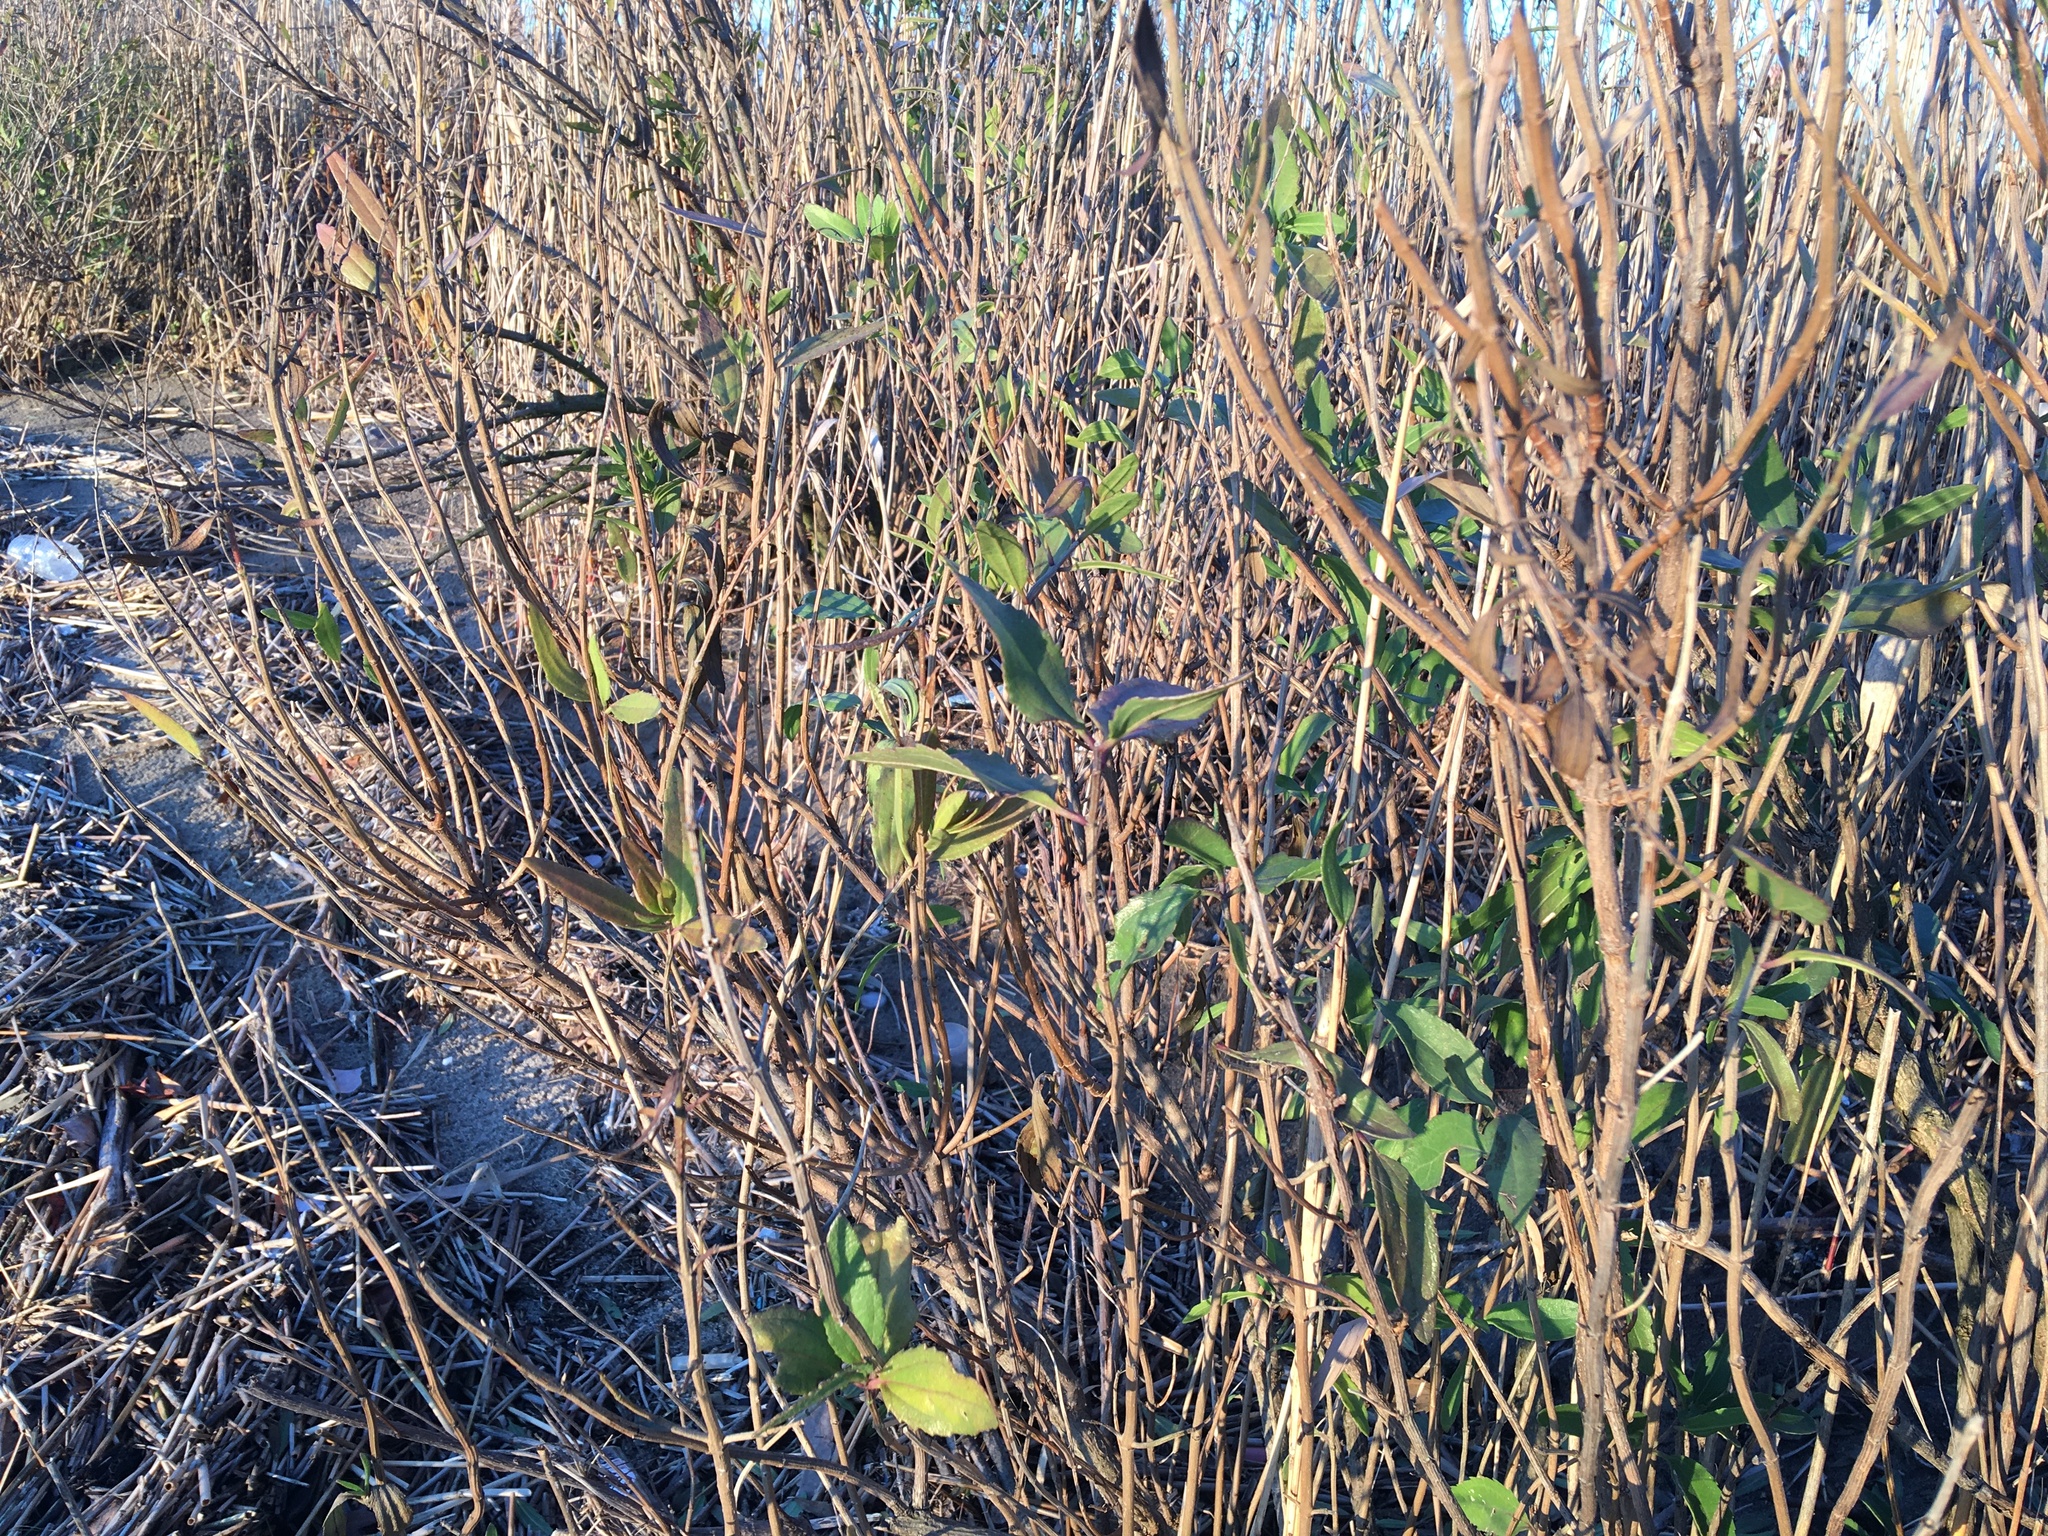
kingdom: Plantae
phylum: Tracheophyta
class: Magnoliopsida
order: Asterales
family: Asteraceae
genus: Iva
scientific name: Iva frutescens
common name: Big-leaved marsh-elder
